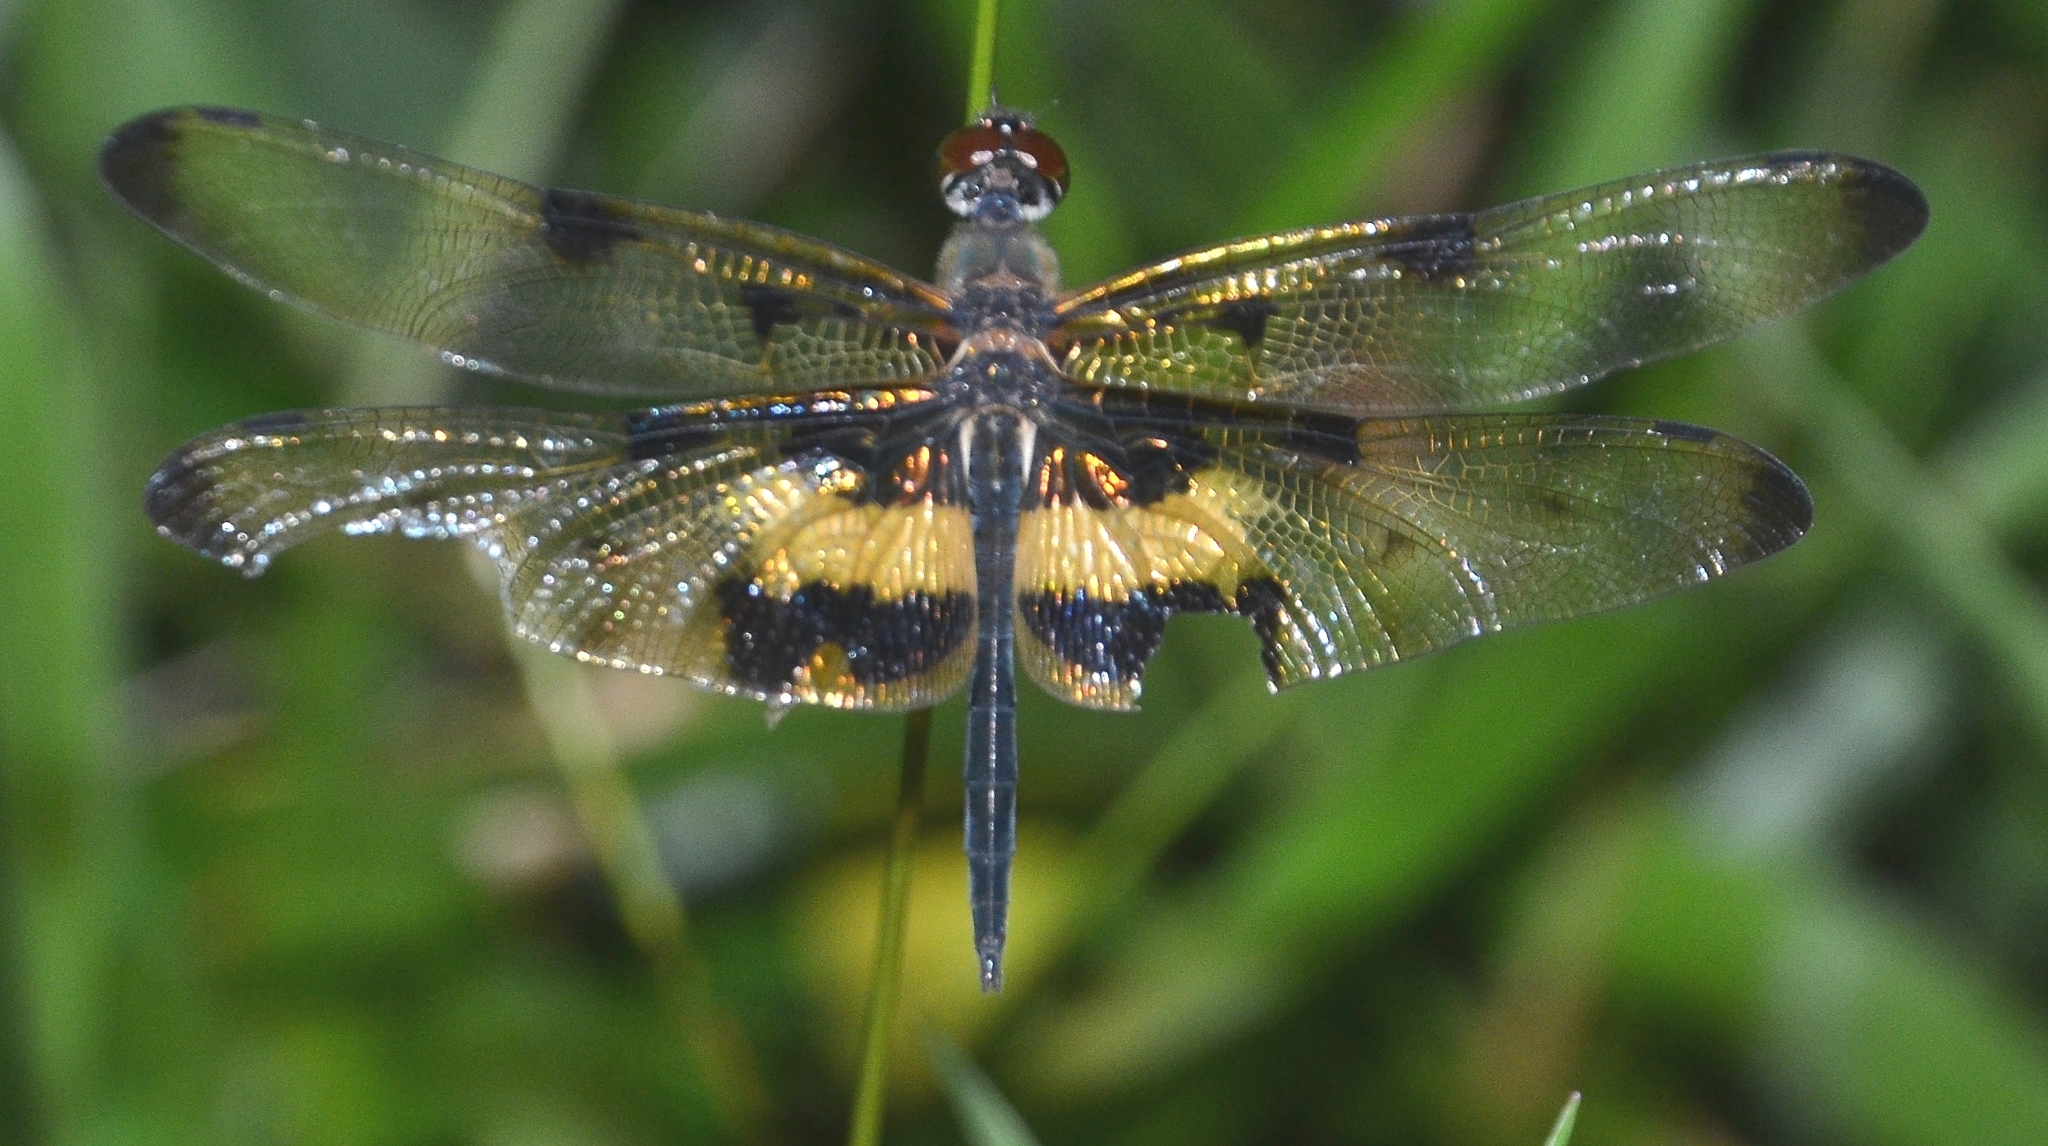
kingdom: Animalia
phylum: Arthropoda
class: Insecta
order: Odonata
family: Libellulidae
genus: Rhyothemis
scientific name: Rhyothemis variegata
